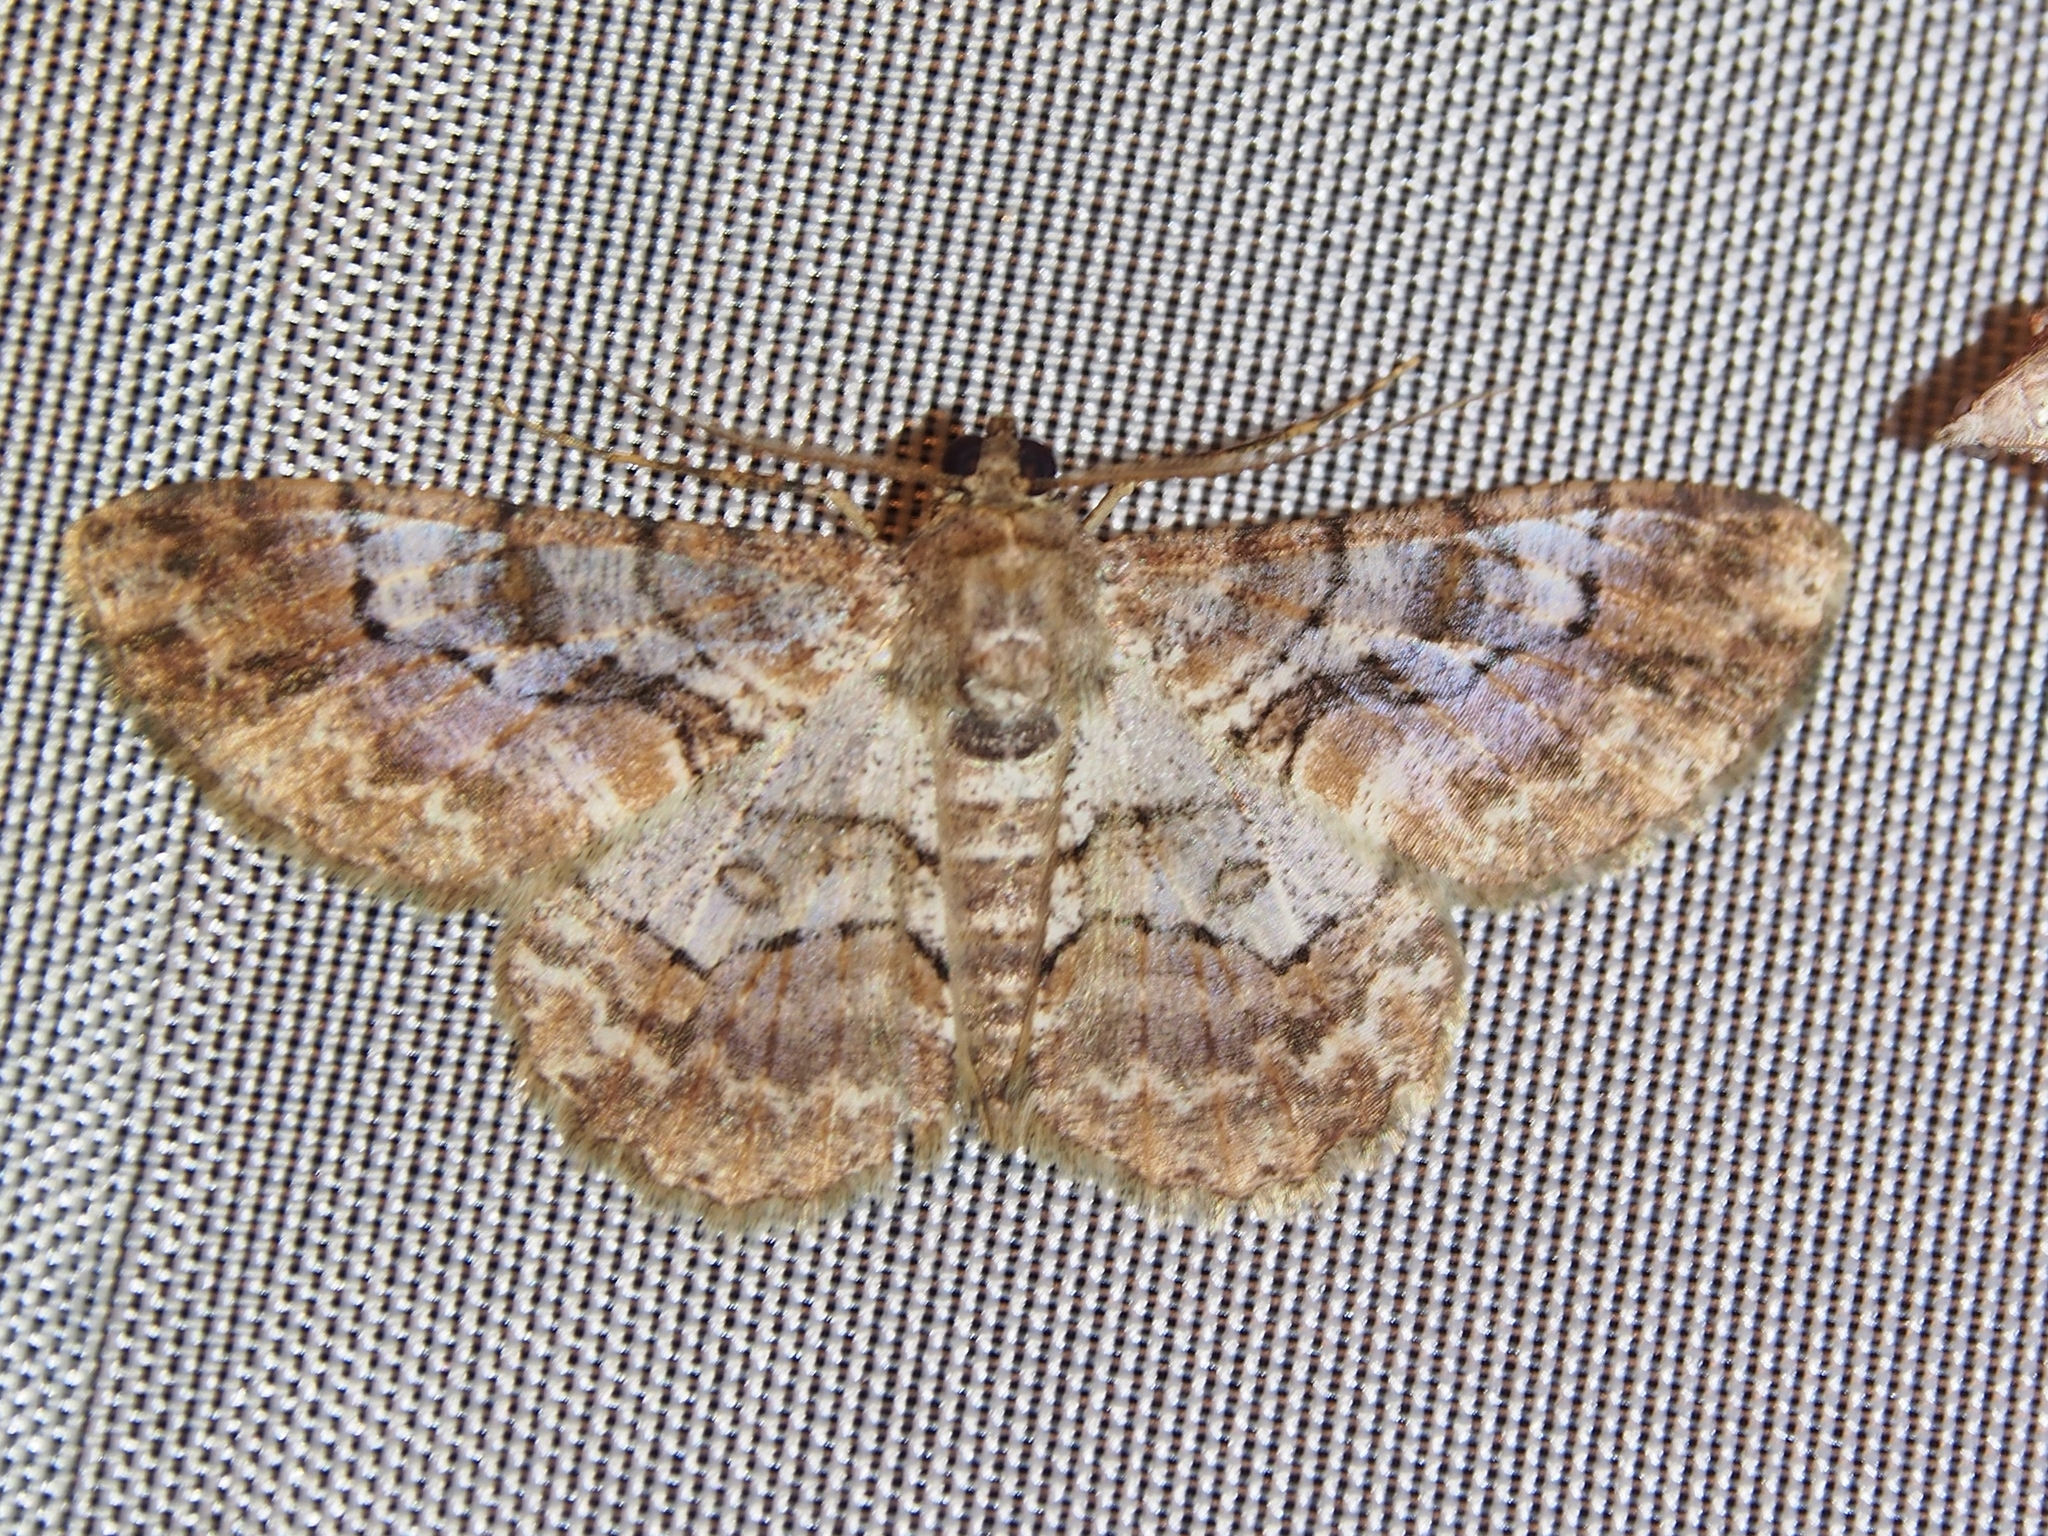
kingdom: Animalia
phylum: Arthropoda
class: Insecta
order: Lepidoptera
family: Geometridae
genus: Iridopsis
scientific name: Iridopsis herse
